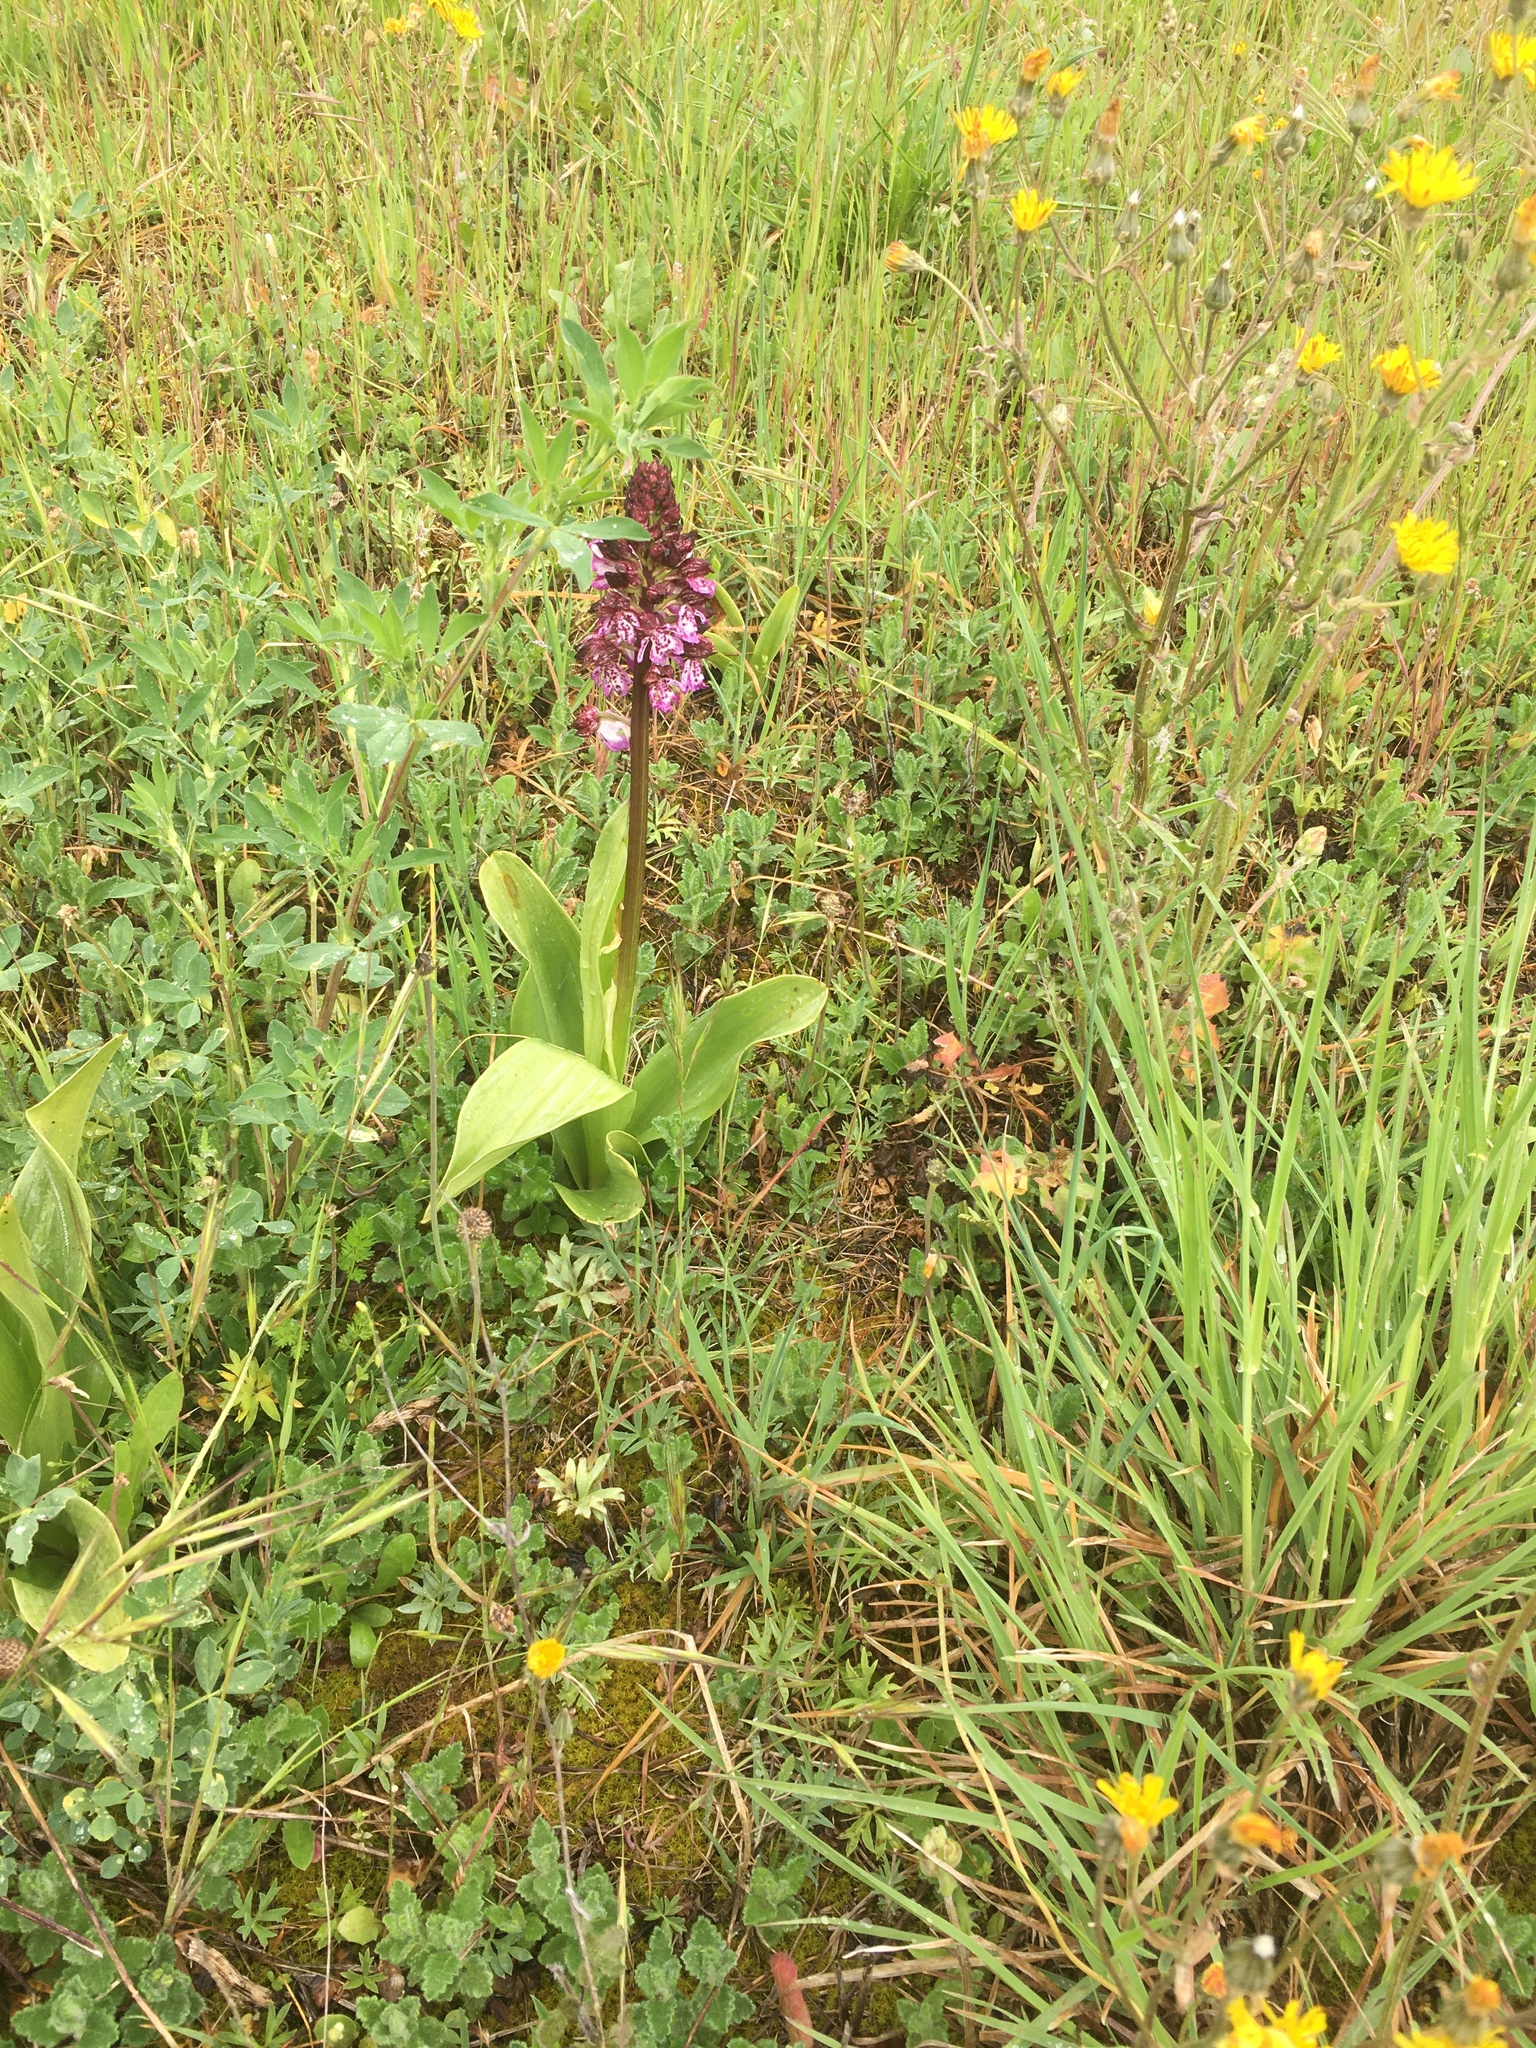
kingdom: Plantae
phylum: Tracheophyta
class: Liliopsida
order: Asparagales
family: Orchidaceae
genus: Orchis
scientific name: Orchis purpurea
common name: Lady orchid
